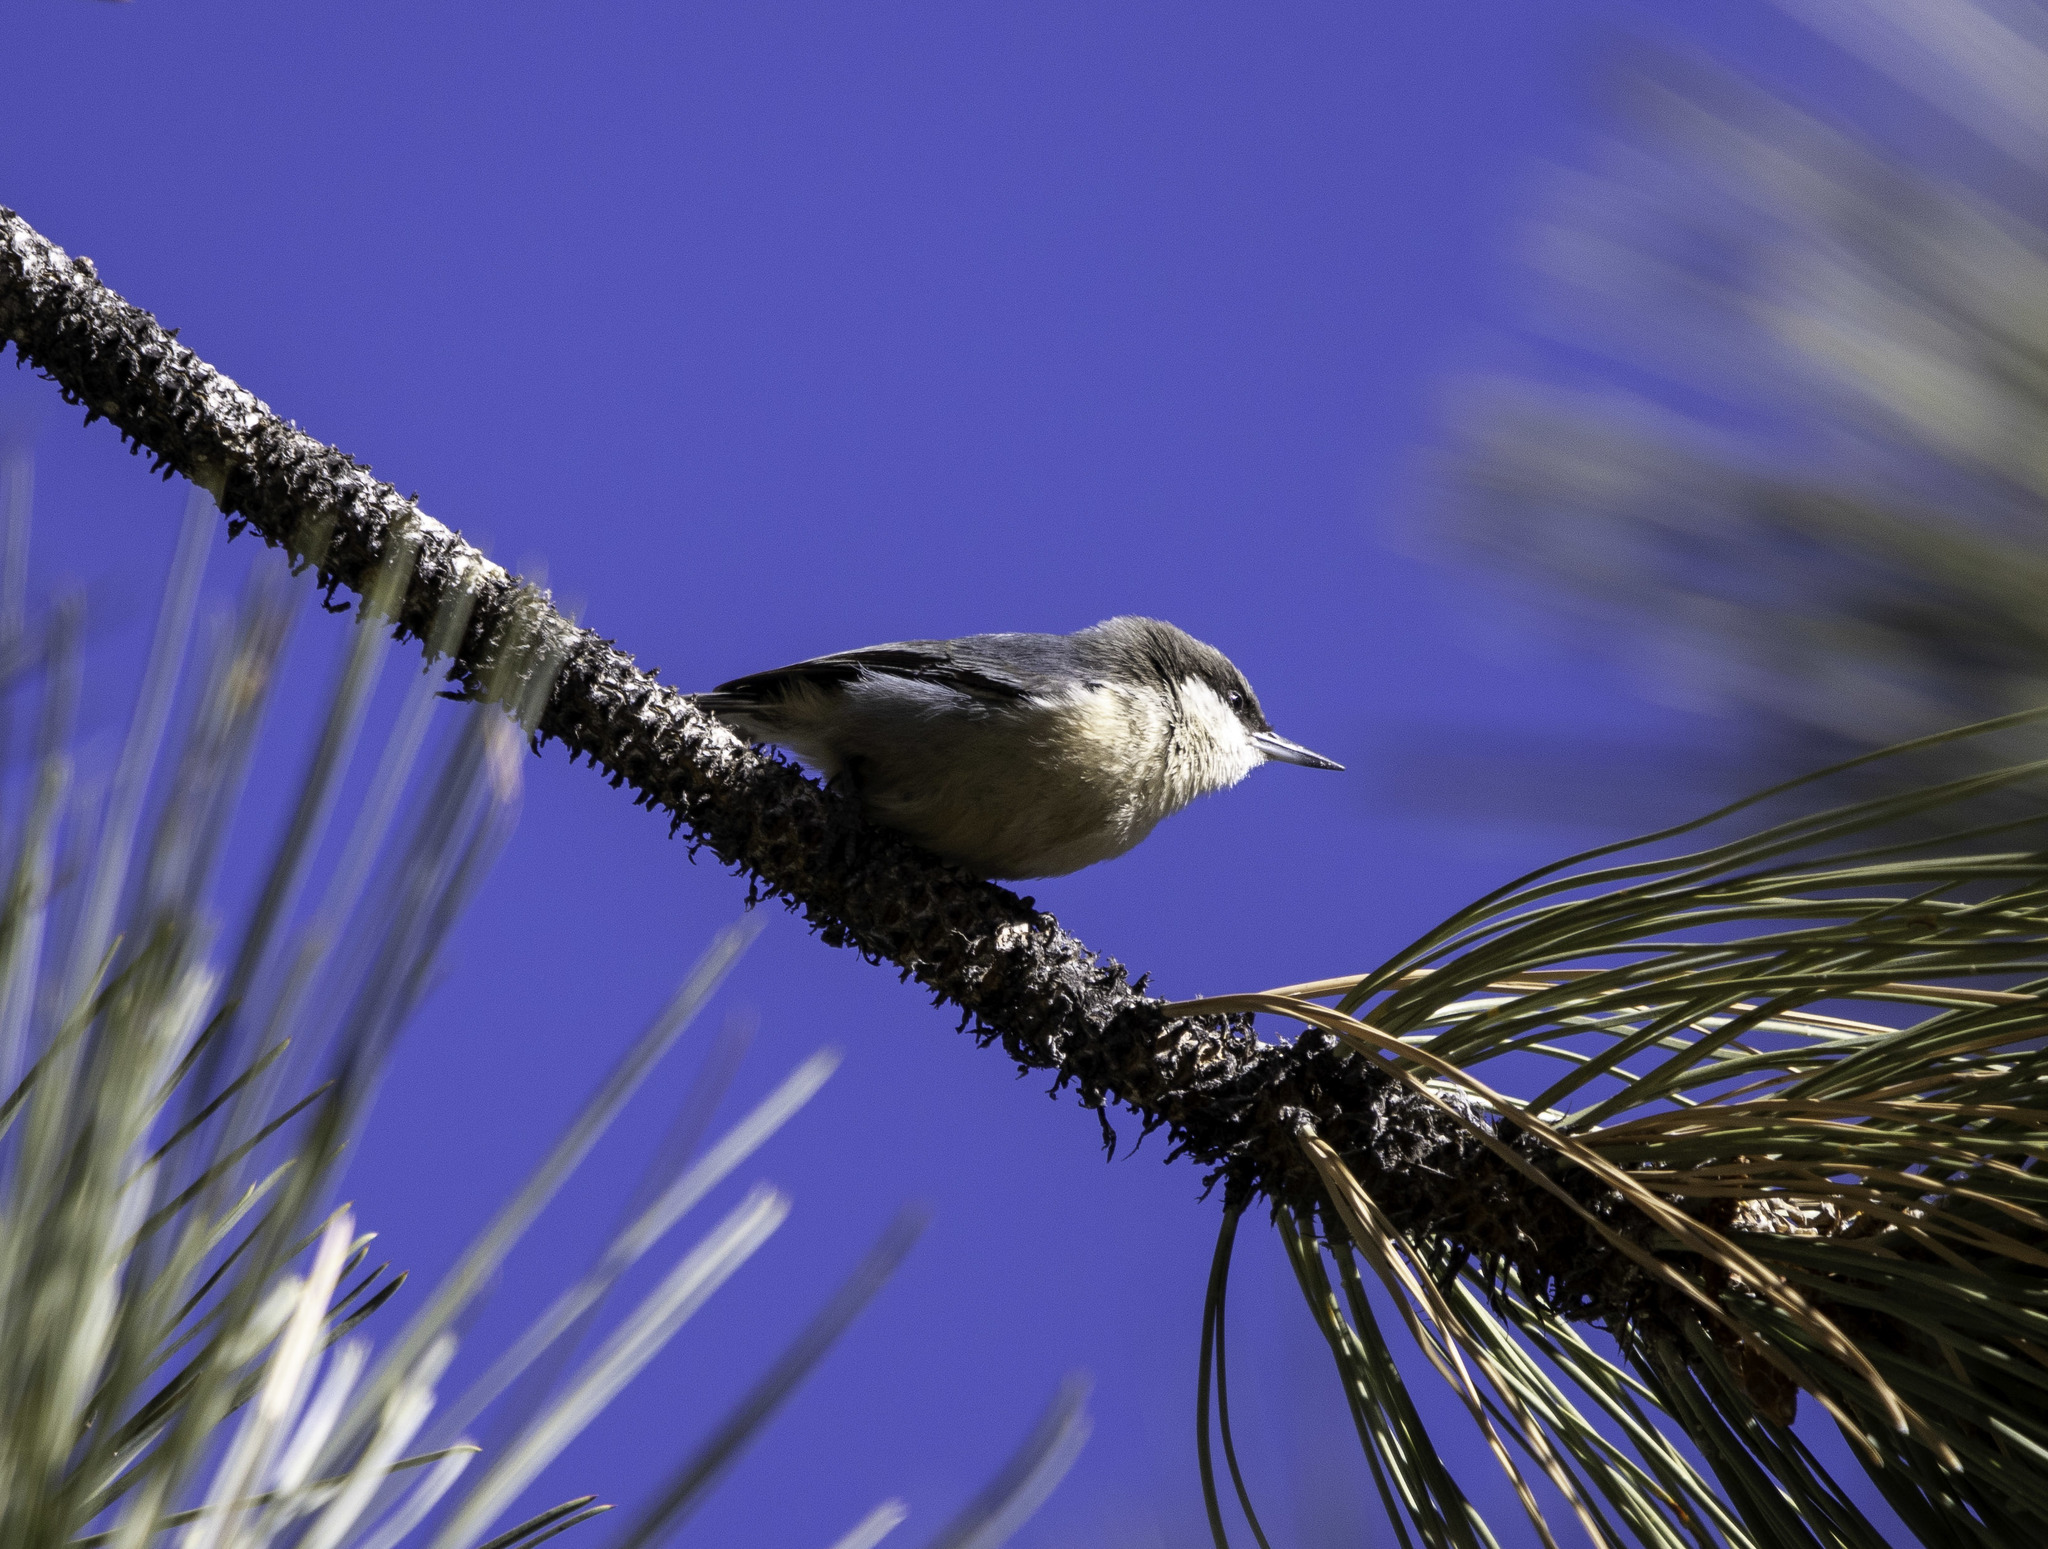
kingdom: Animalia
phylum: Chordata
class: Aves
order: Passeriformes
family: Sittidae
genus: Sitta
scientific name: Sitta pygmaea
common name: Pygmy nuthatch
